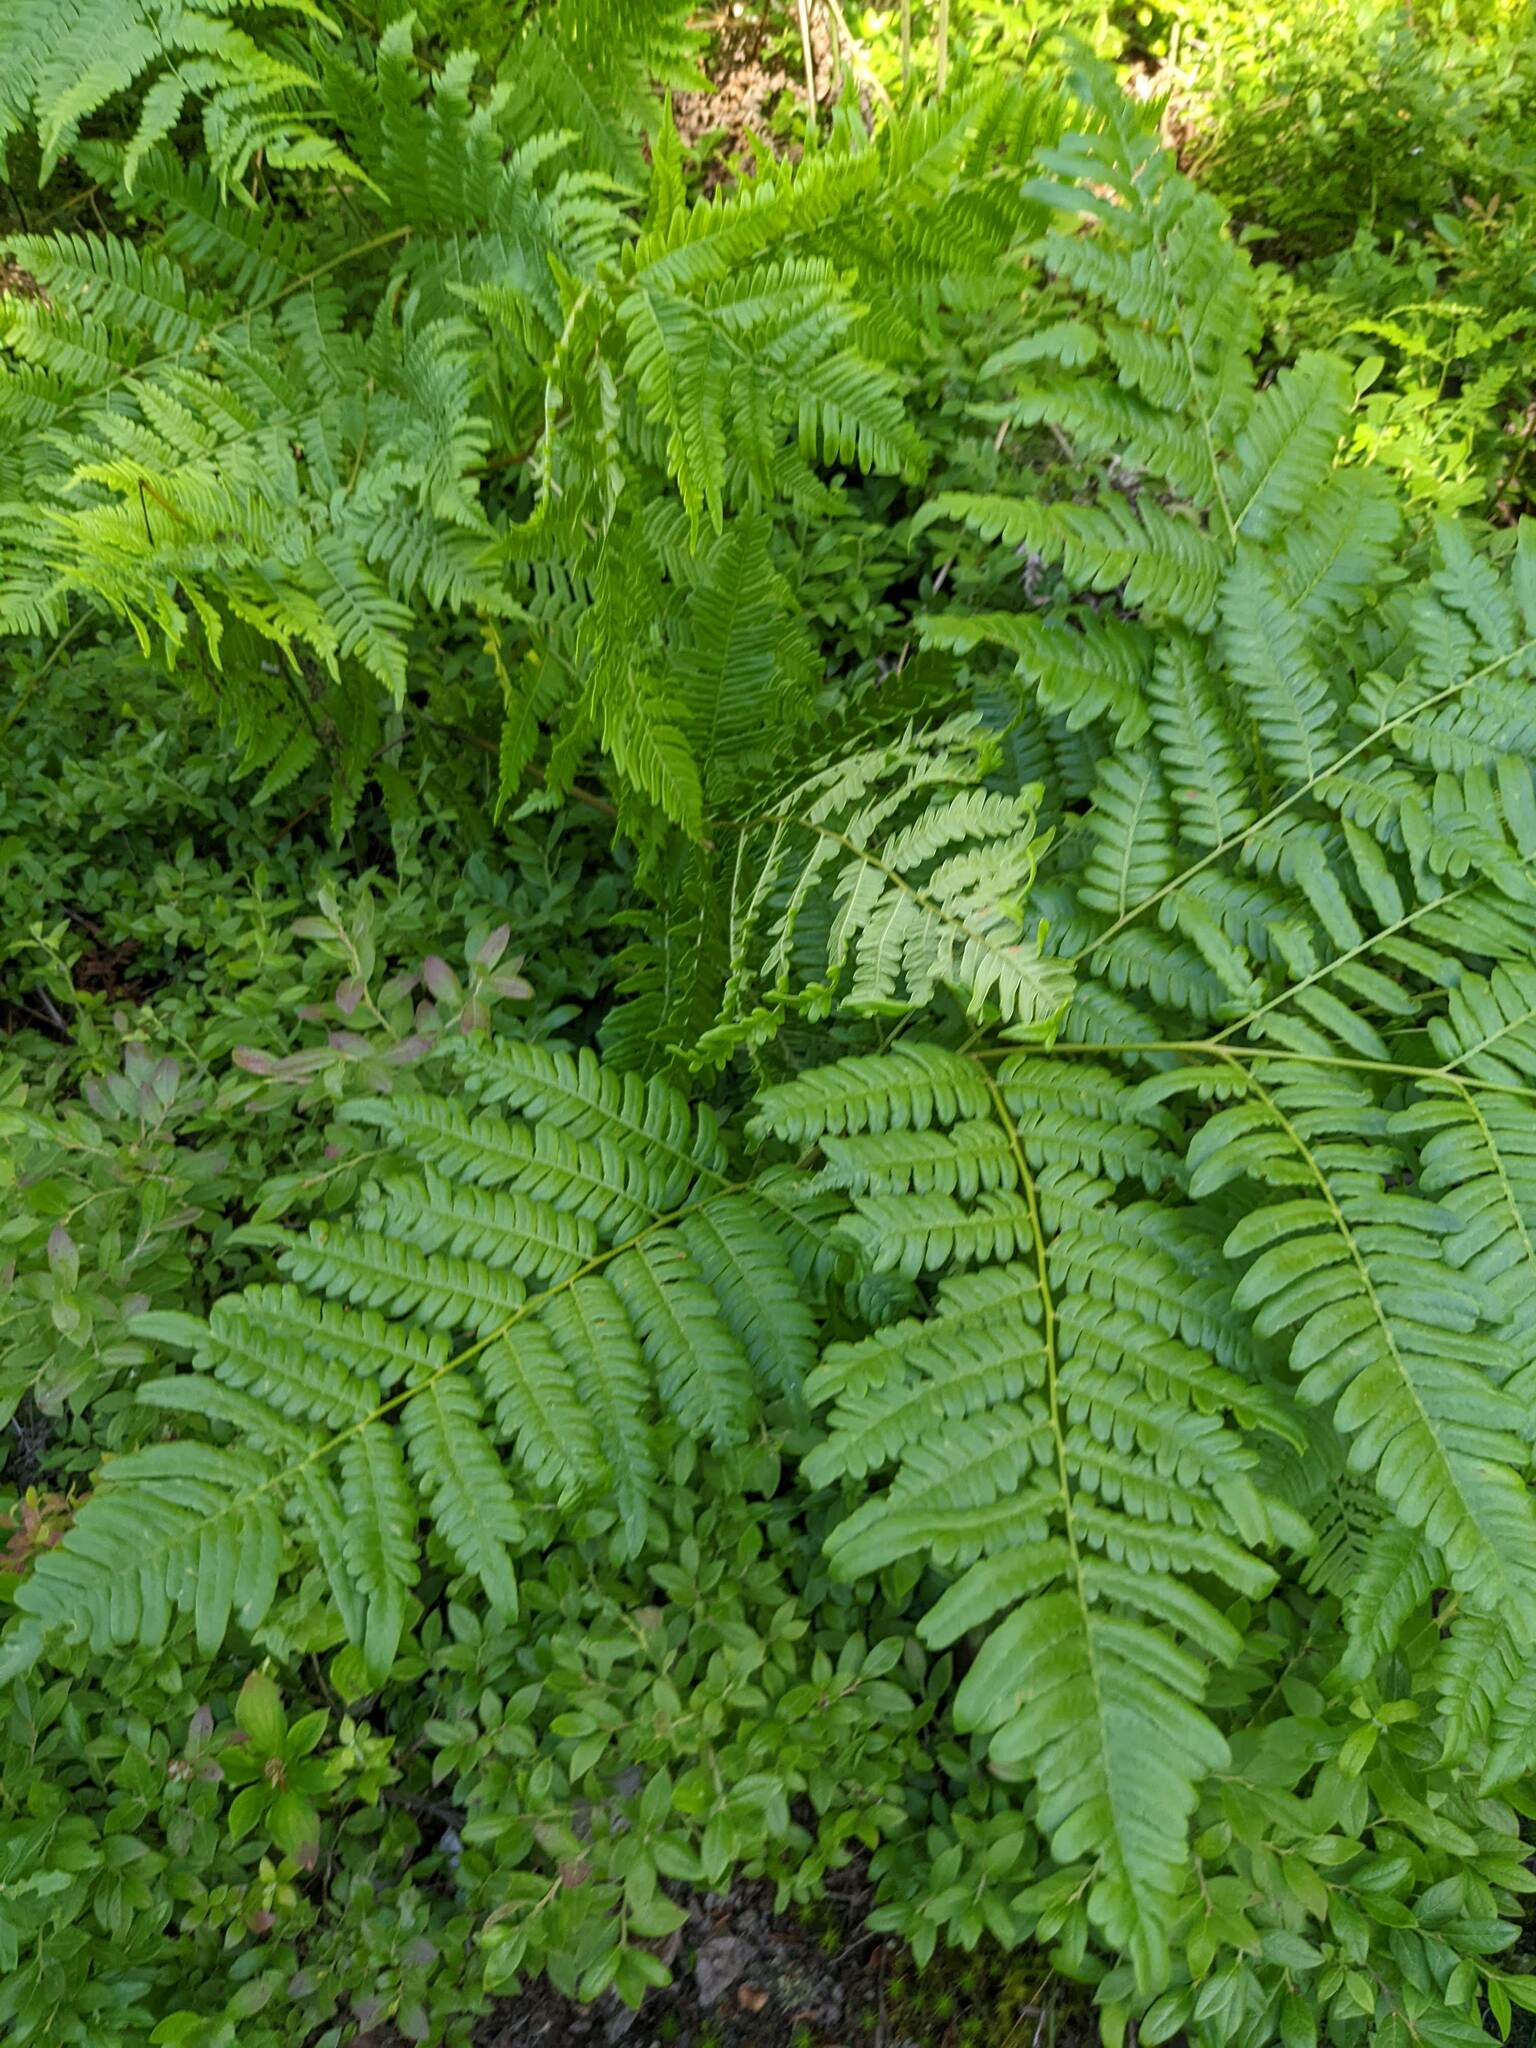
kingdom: Plantae
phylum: Tracheophyta
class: Polypodiopsida
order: Polypodiales
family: Dennstaedtiaceae
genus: Pteridium
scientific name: Pteridium aquilinum
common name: Bracken
